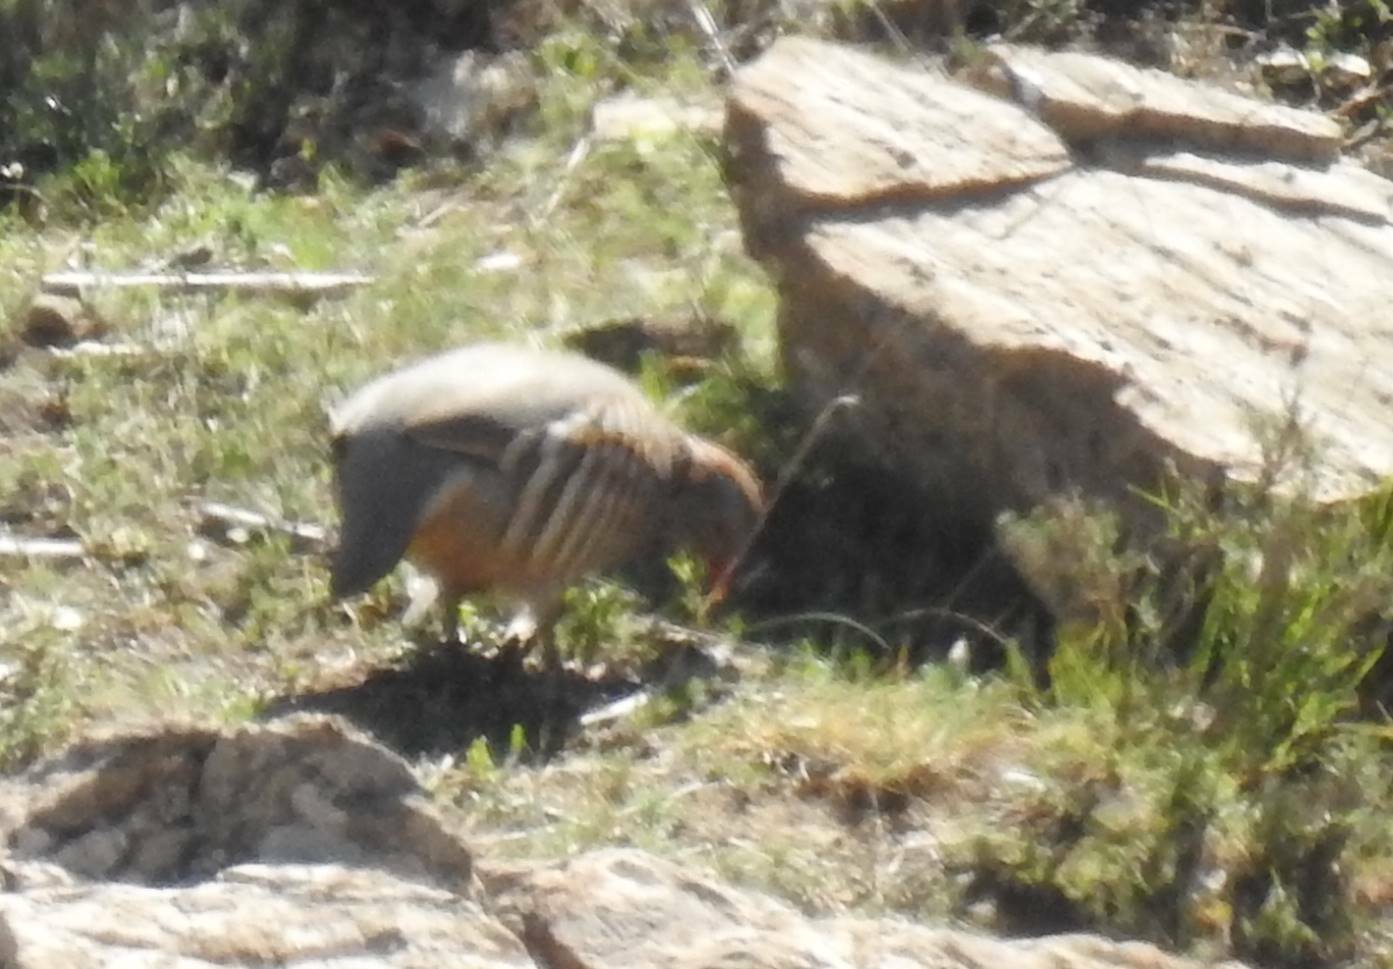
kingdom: Animalia
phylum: Chordata
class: Aves
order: Galliformes
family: Phasianidae
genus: Alectoris
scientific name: Alectoris barbara
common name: Barbary partridge
